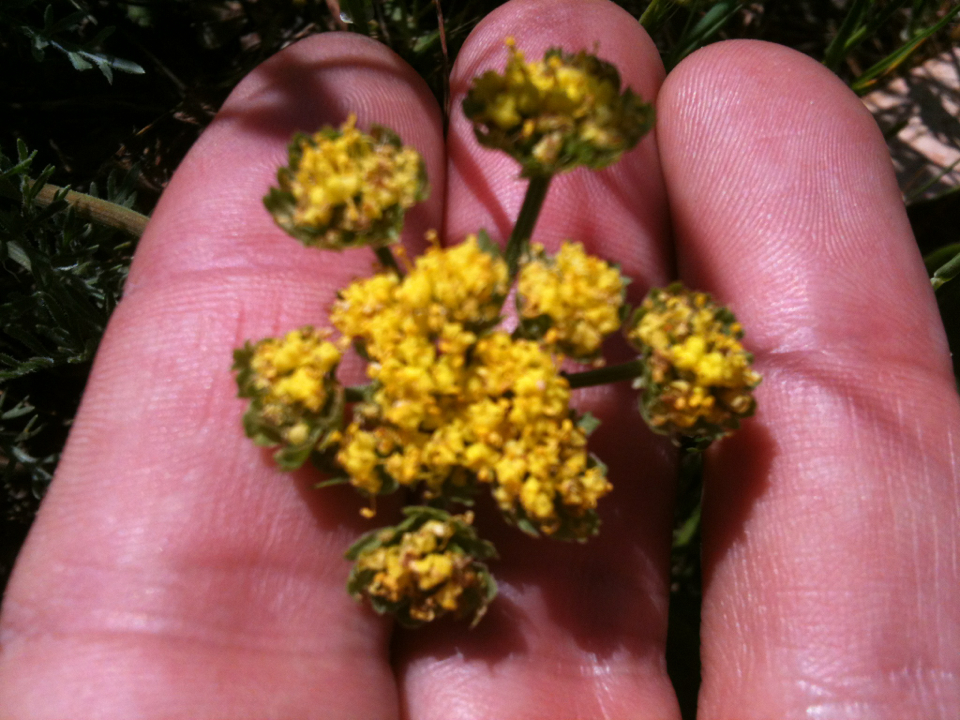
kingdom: Plantae
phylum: Tracheophyta
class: Magnoliopsida
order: Apiales
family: Apiaceae
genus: Lomatium
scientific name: Lomatium utriculatum
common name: Fine-leaf desert-parsley
